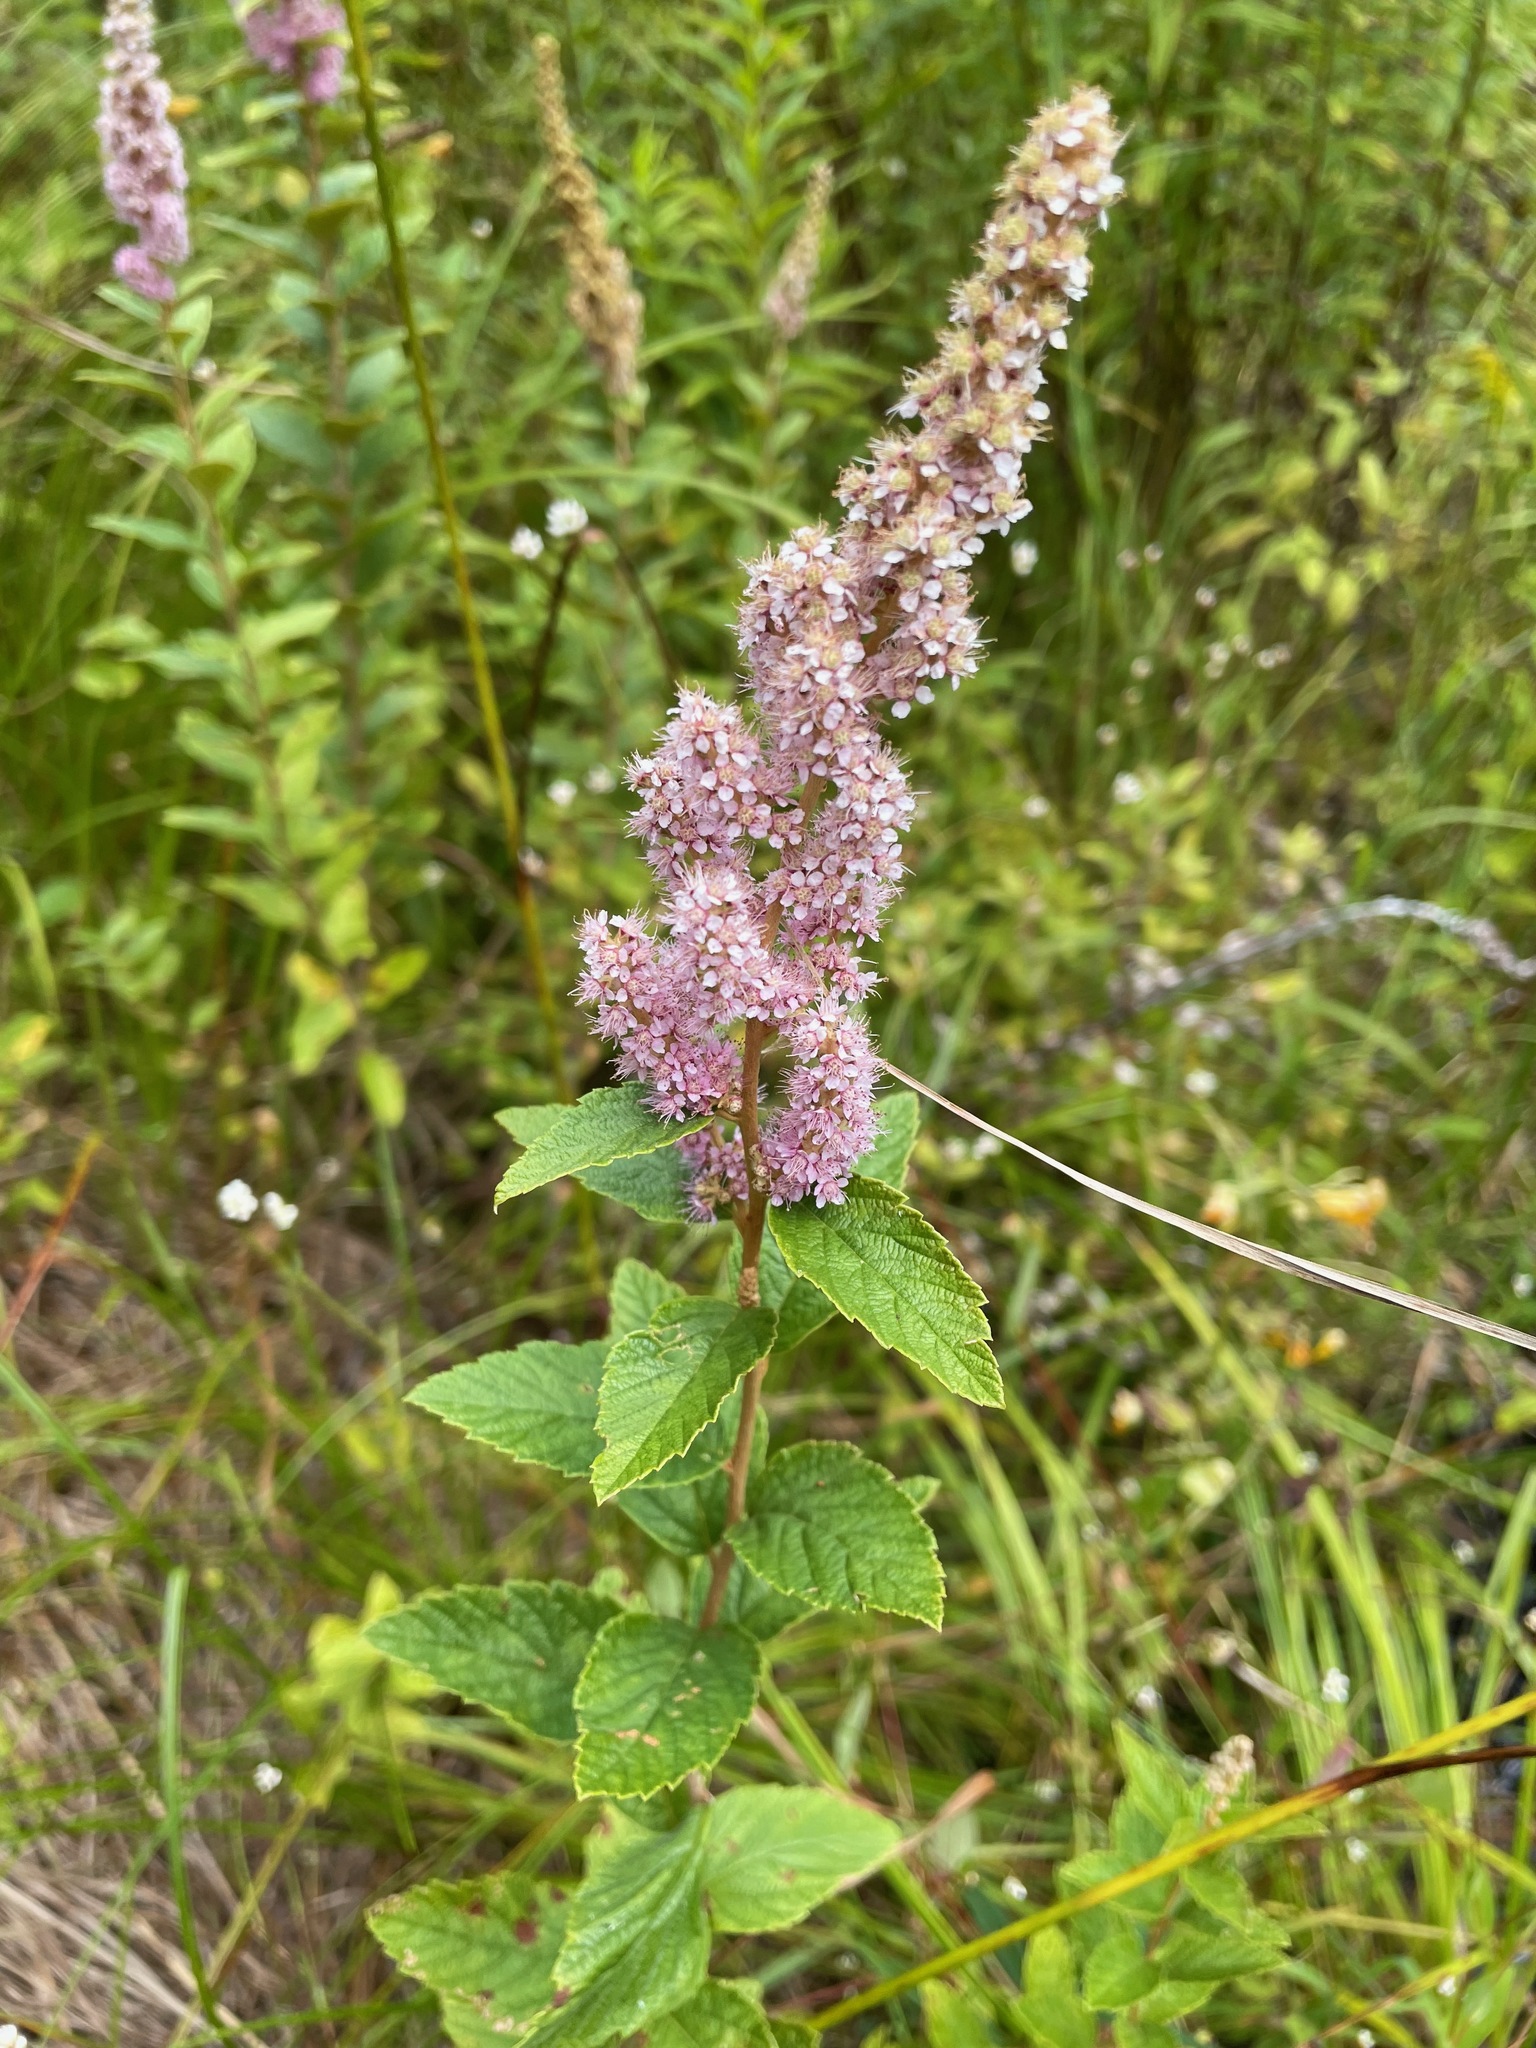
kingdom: Plantae
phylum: Tracheophyta
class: Magnoliopsida
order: Rosales
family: Rosaceae
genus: Spiraea
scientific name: Spiraea tomentosa
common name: Hardhack
